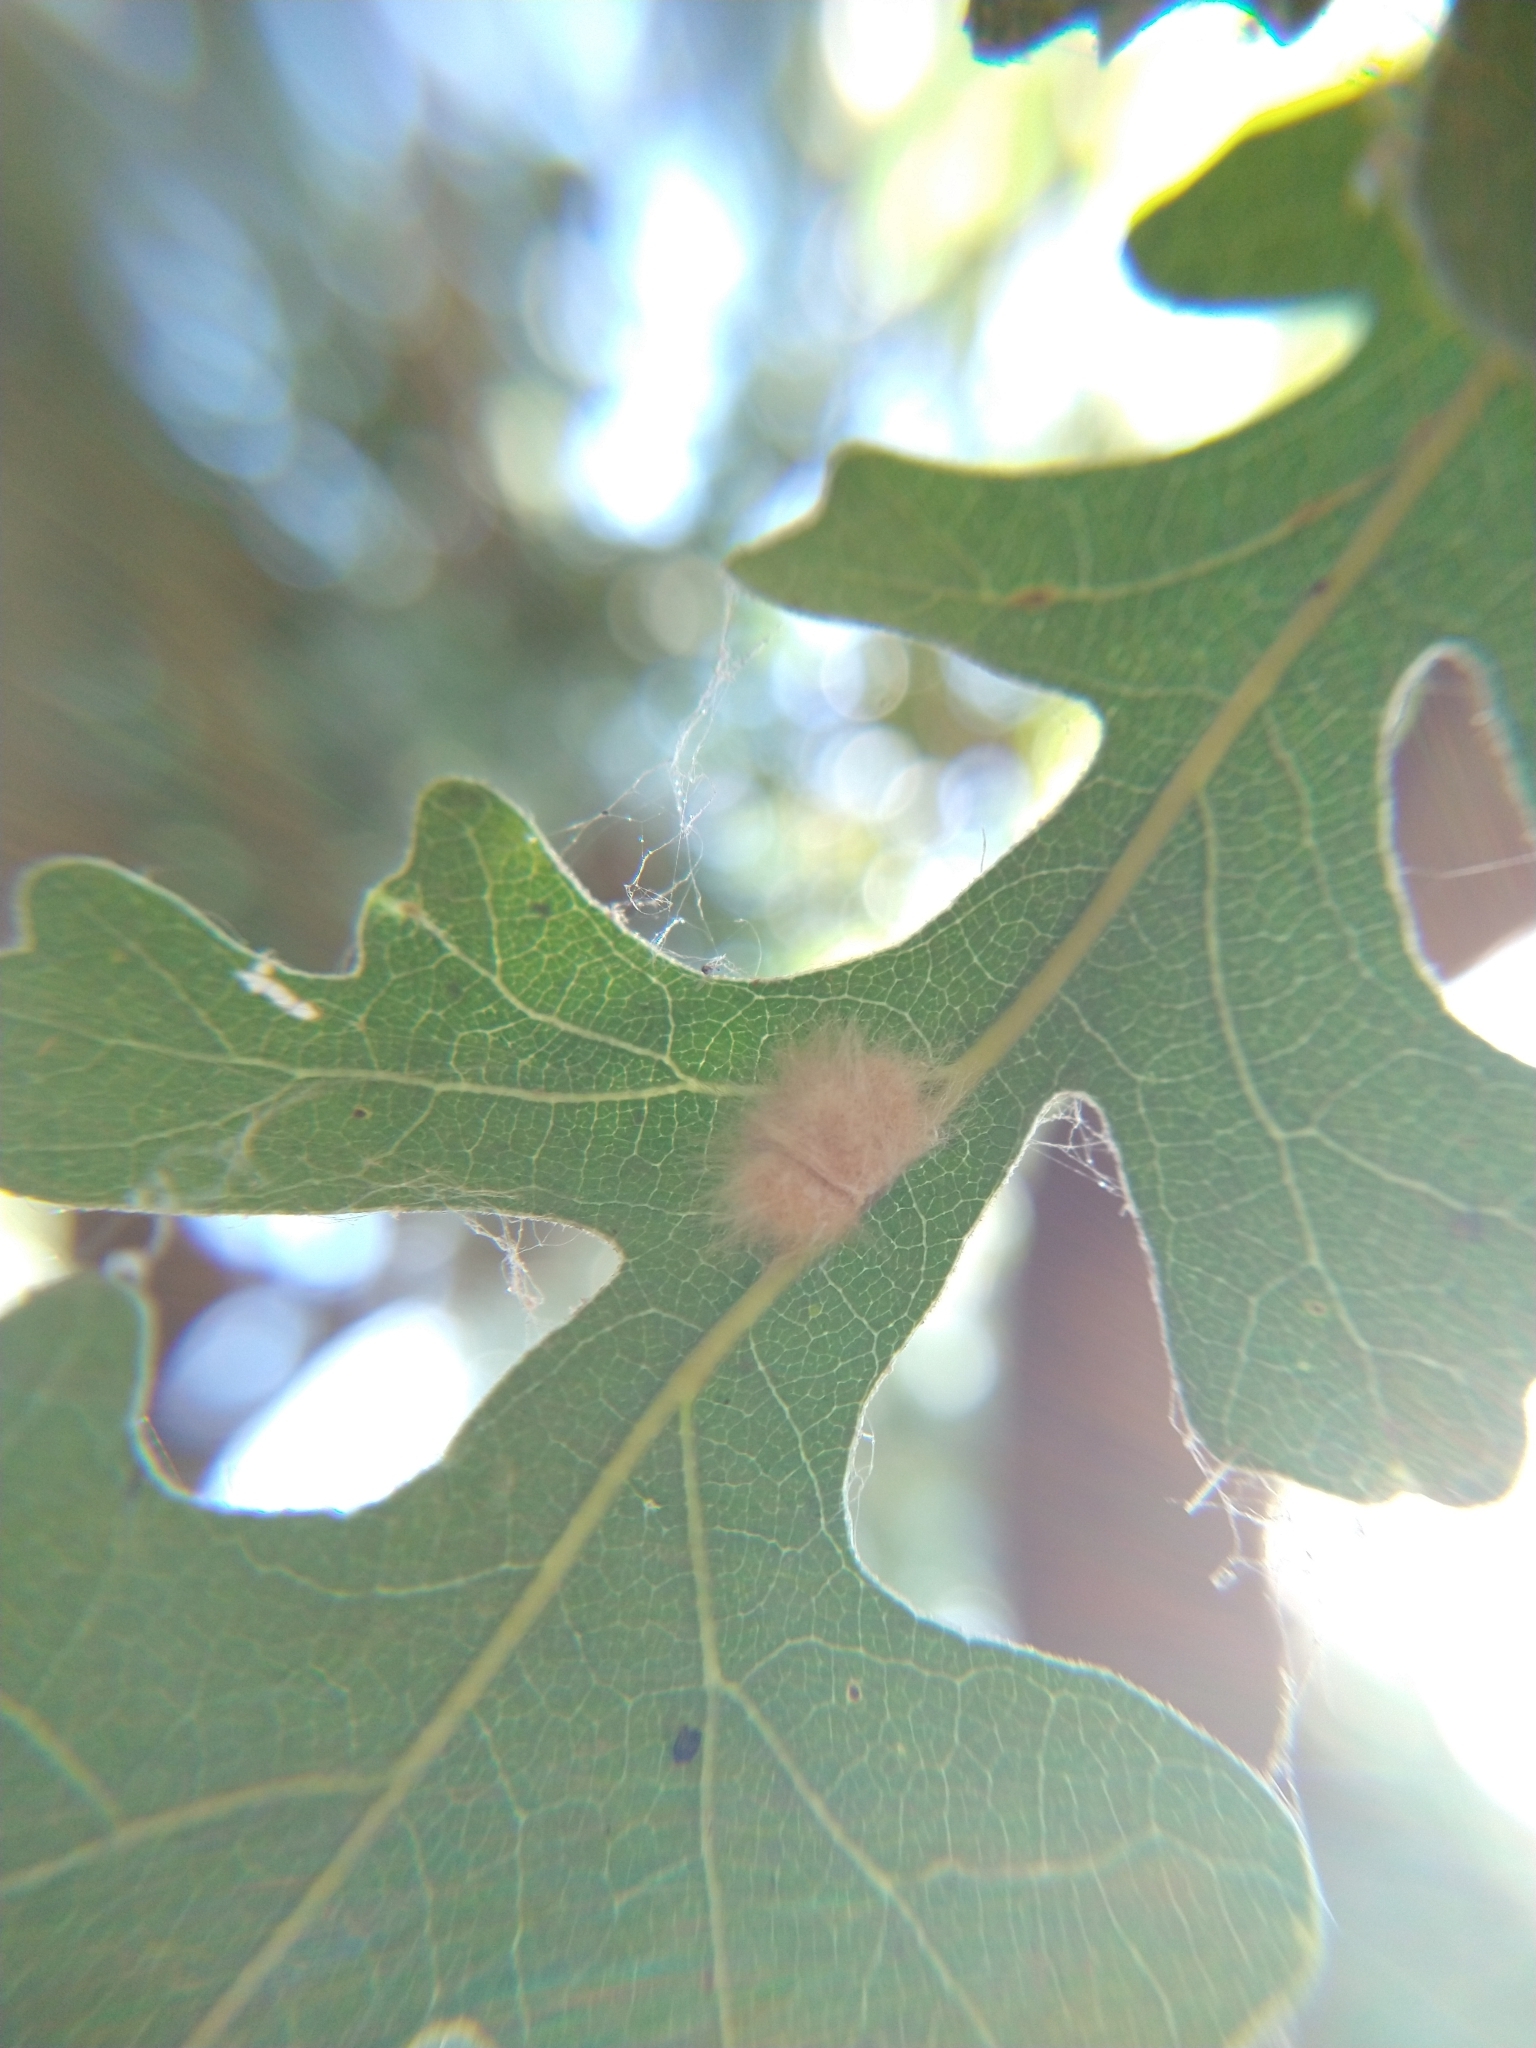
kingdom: Animalia
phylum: Arthropoda
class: Insecta
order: Hymenoptera
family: Cynipidae
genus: Andricus
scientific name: Andricus Druon fullawayi
